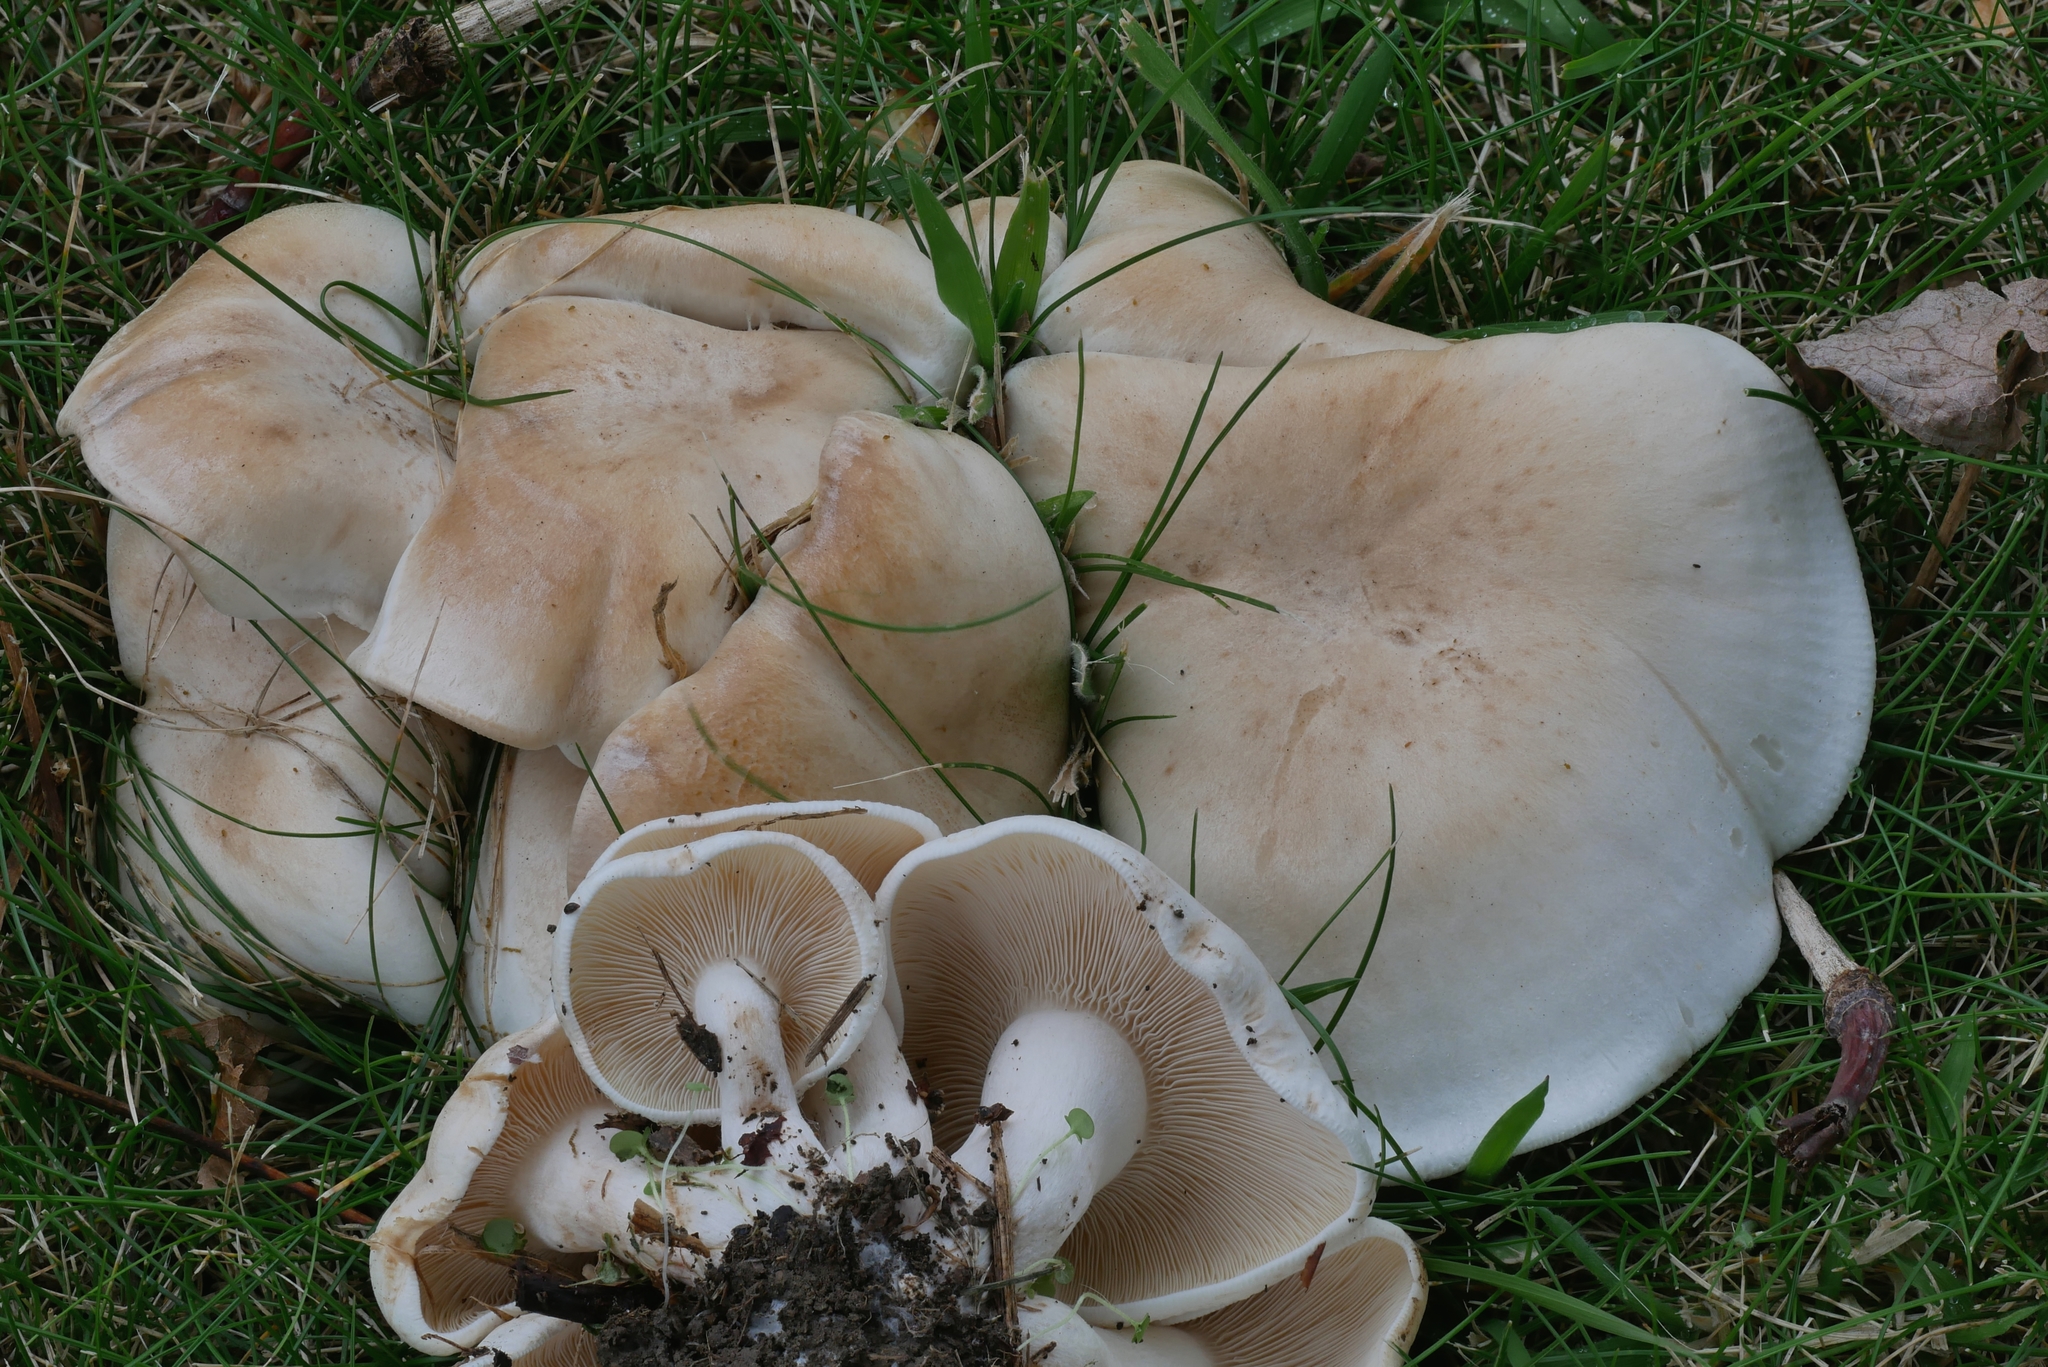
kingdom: Fungi
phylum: Basidiomycota
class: Agaricomycetes
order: Agaricales
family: Tricholomataceae
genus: Leucopaxillus
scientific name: Leucopaxillus albissimus
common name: Large white leucopax
